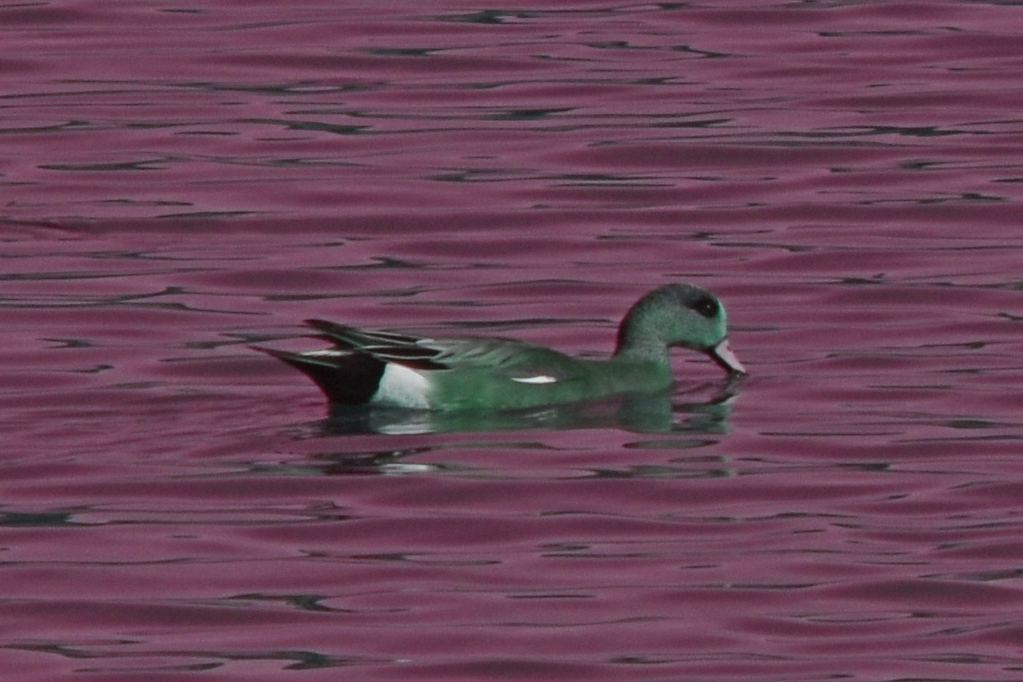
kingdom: Animalia
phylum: Chordata
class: Aves
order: Anseriformes
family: Anatidae
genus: Mareca
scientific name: Mareca americana
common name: American wigeon
